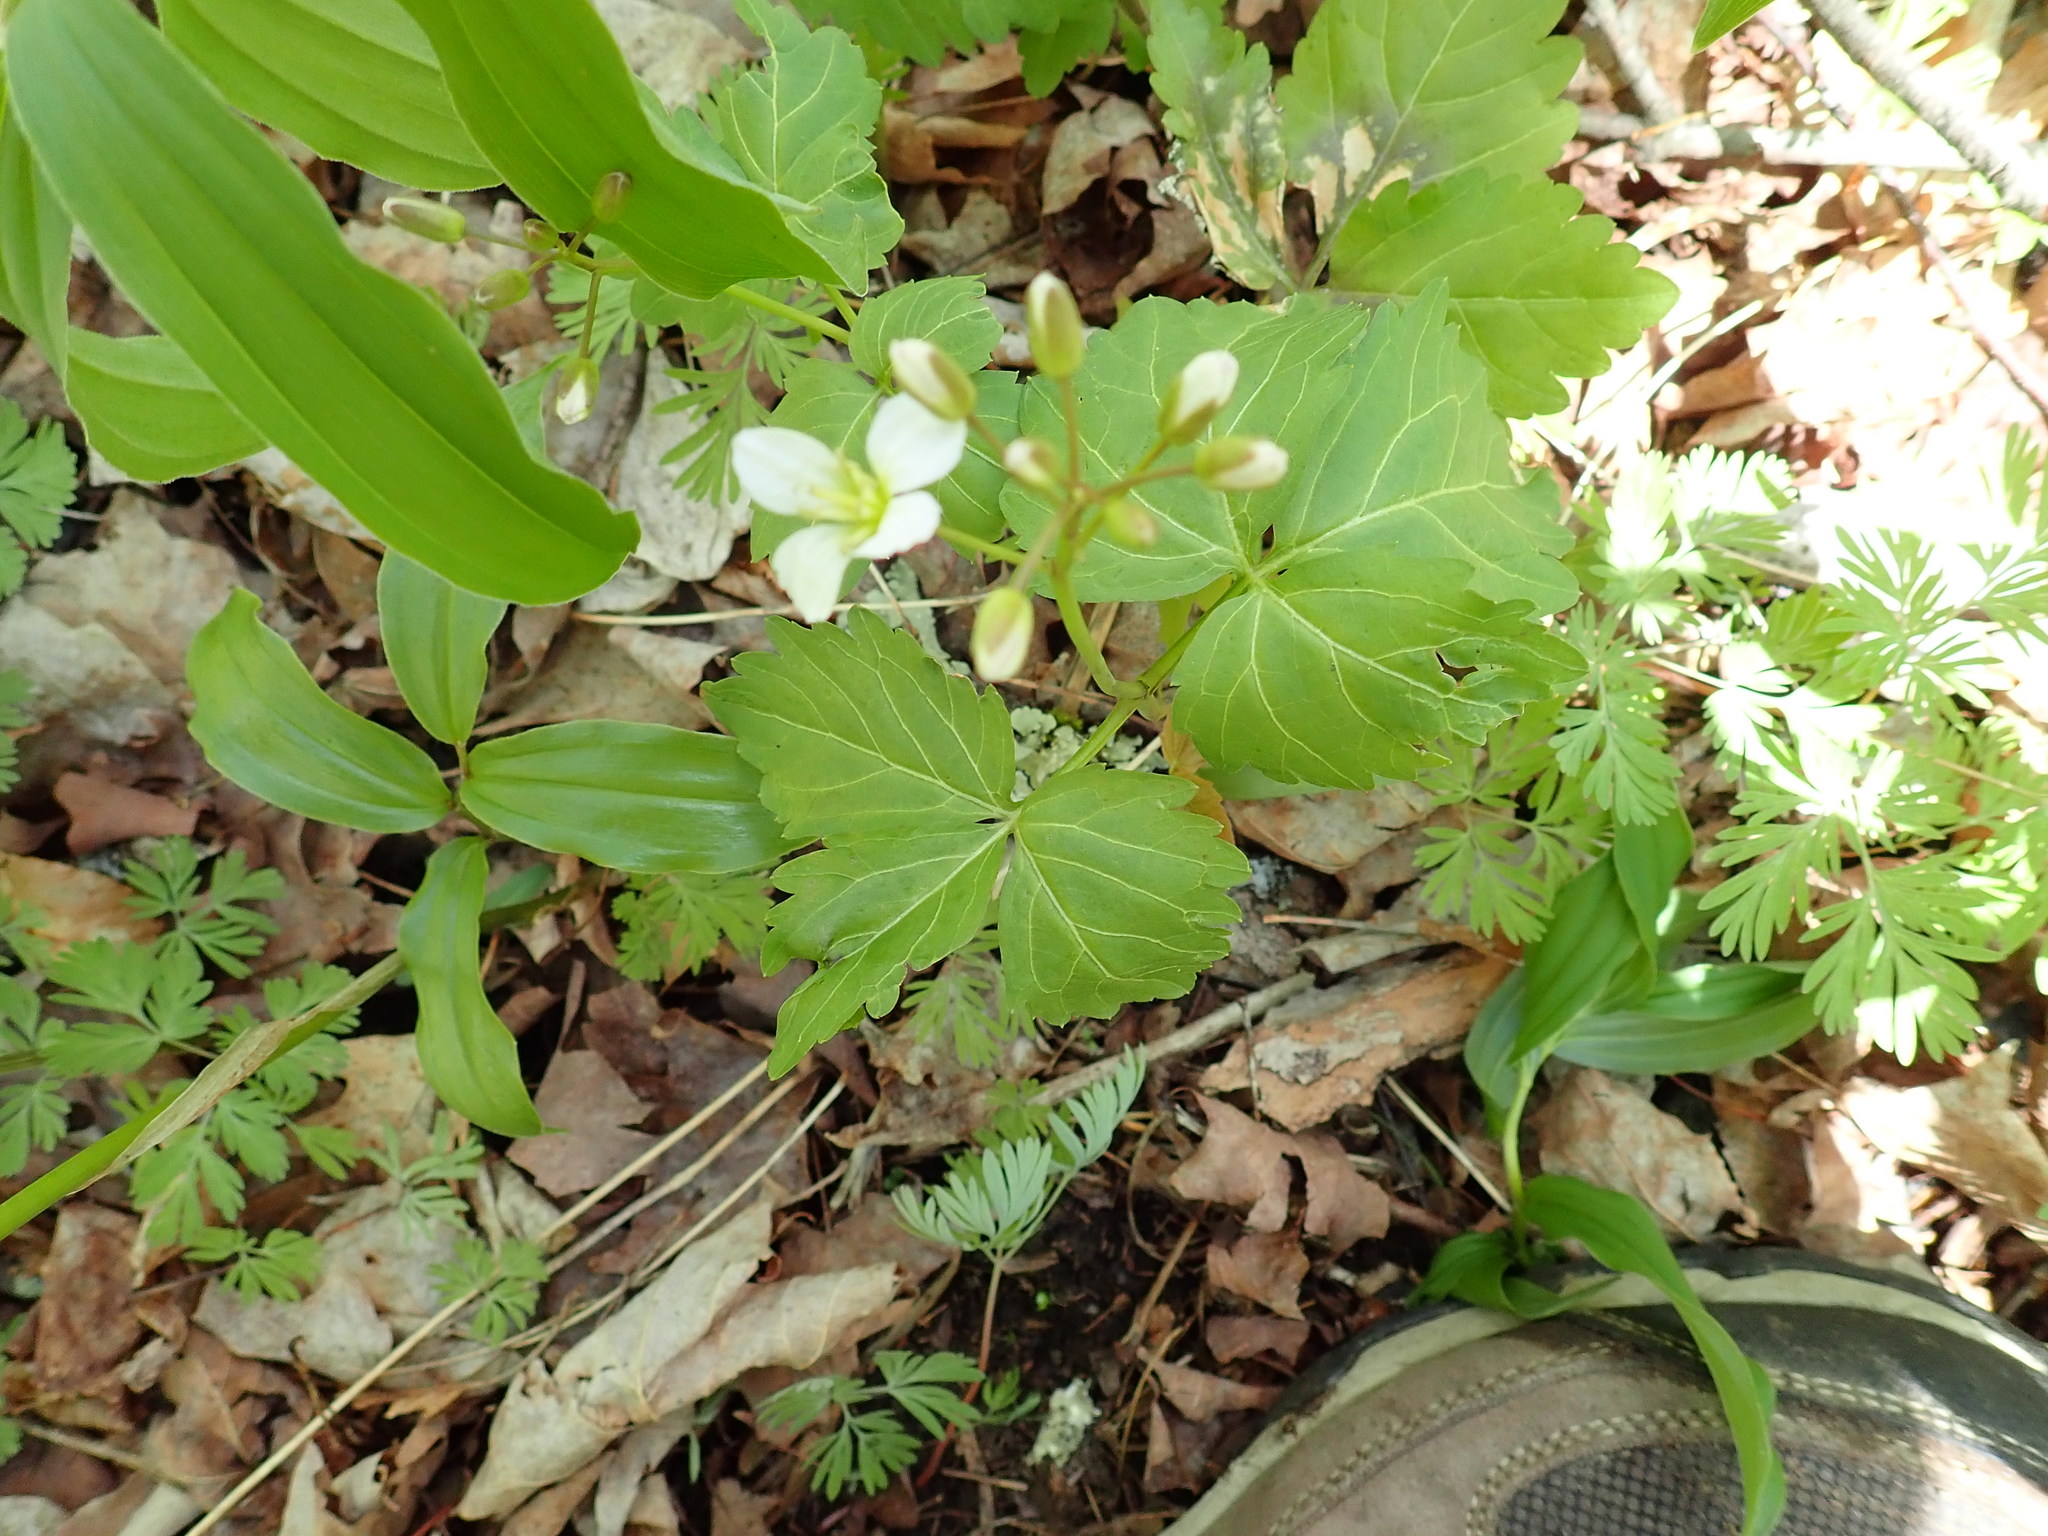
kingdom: Plantae
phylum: Tracheophyta
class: Magnoliopsida
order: Brassicales
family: Brassicaceae
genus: Cardamine
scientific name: Cardamine diphylla
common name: Broad-leaved toothwort
